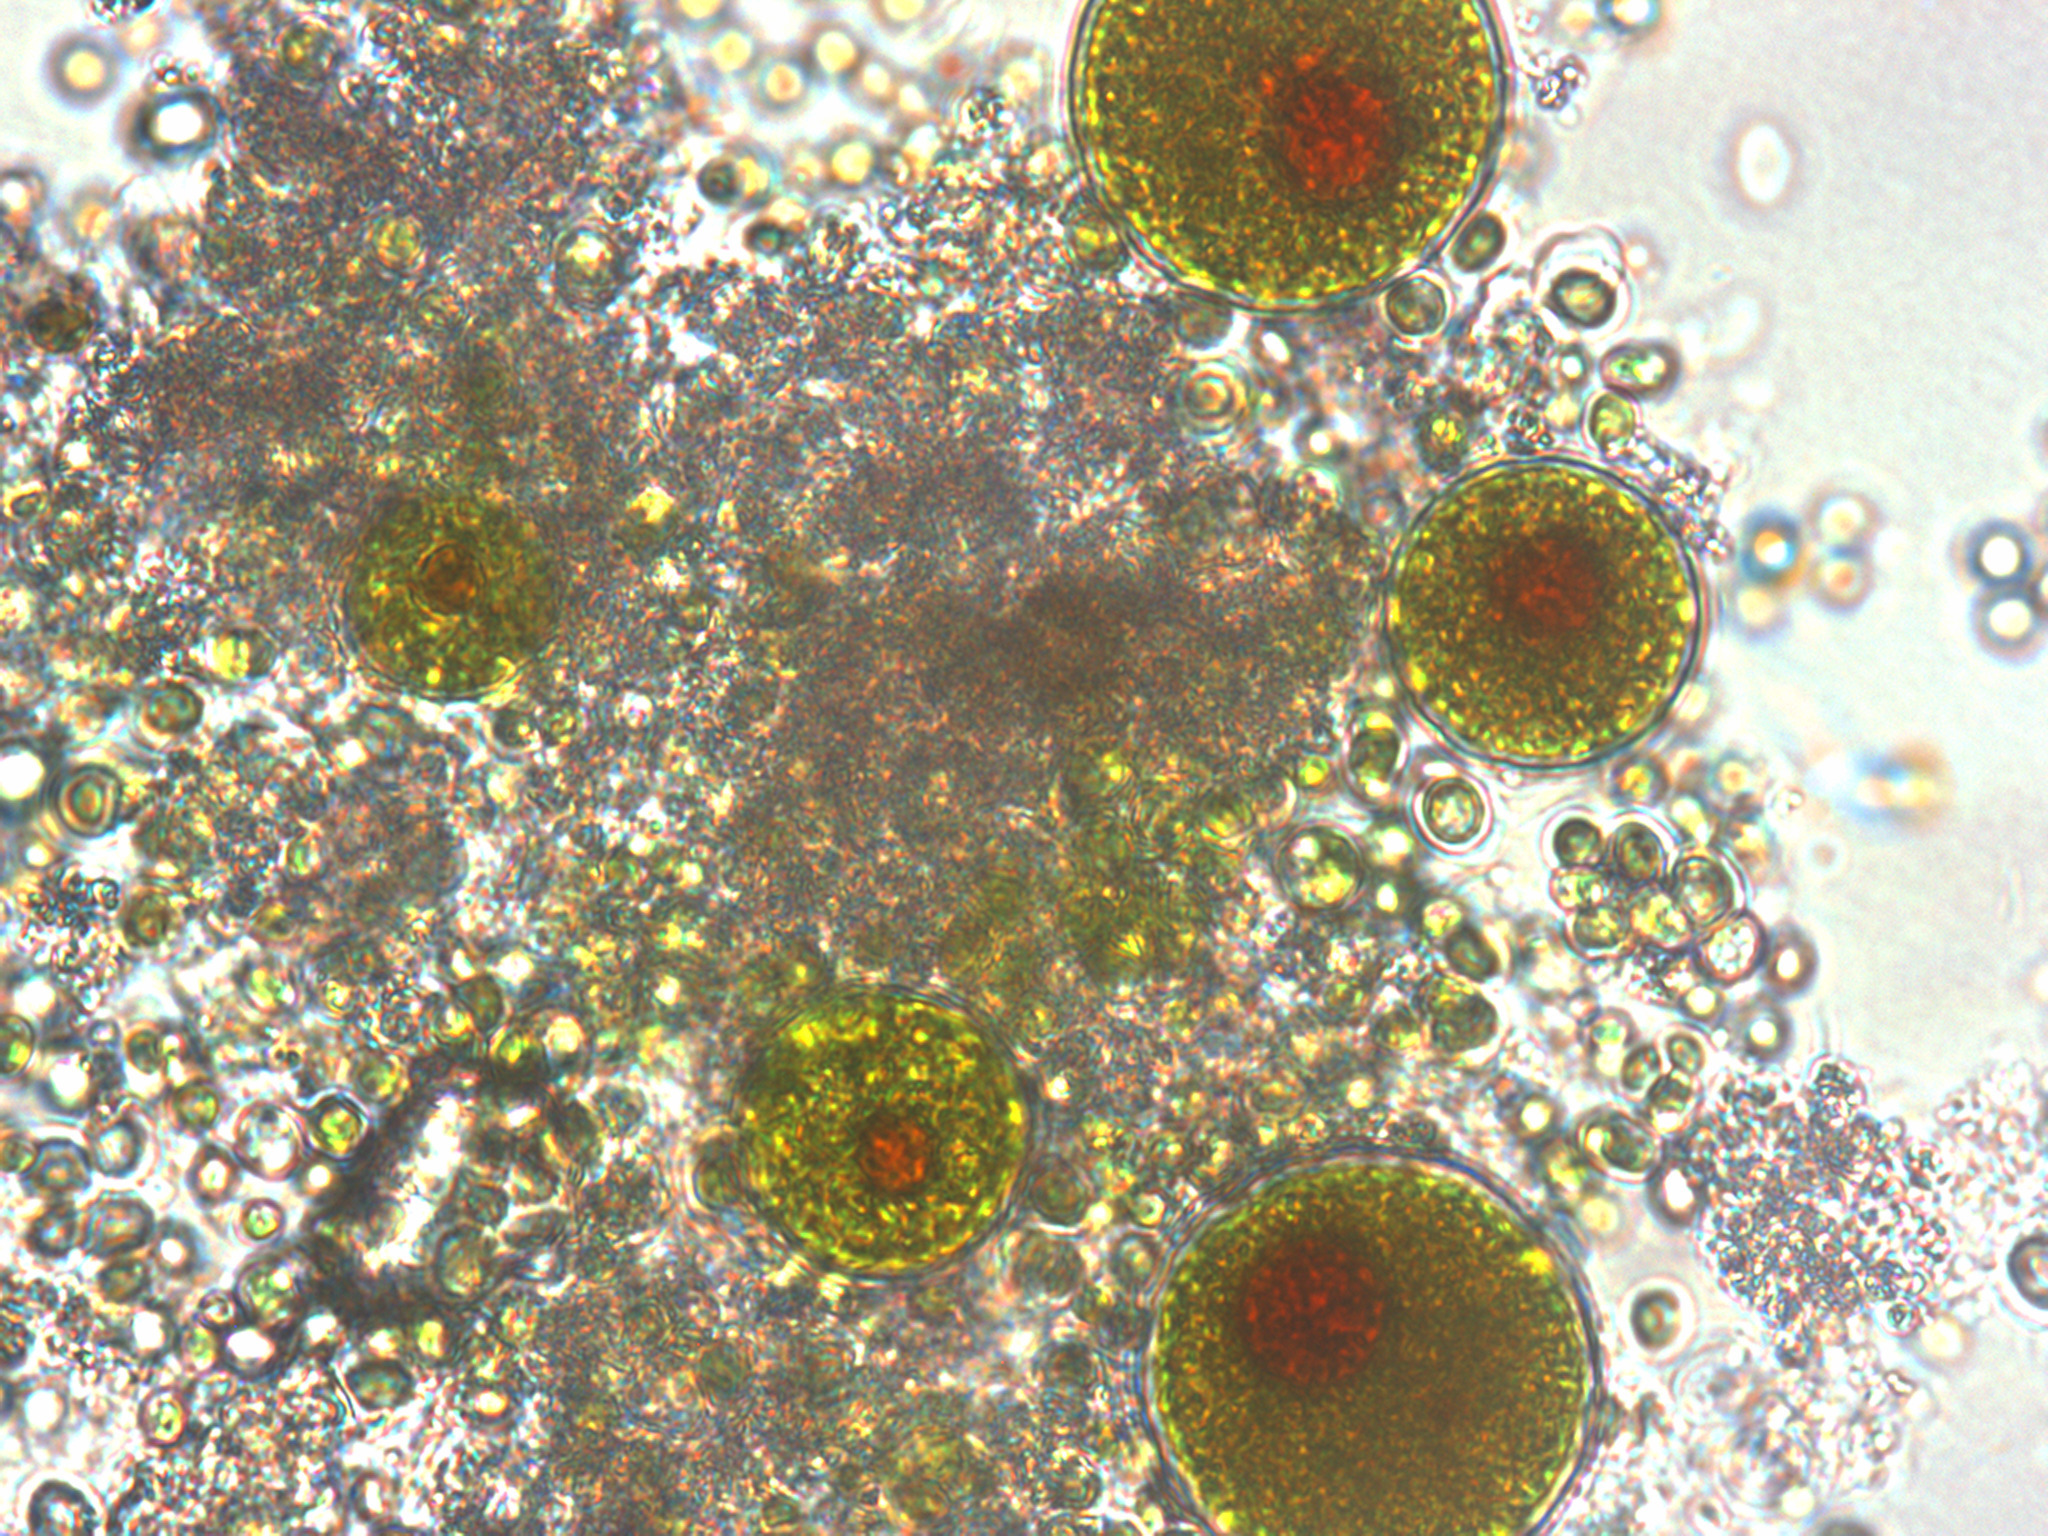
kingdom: Plantae
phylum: Chlorophyta
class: Chlorophyceae
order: Volvocales
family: Haematococcaceae
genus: Haematococcus
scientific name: Haematococcus lacustris
